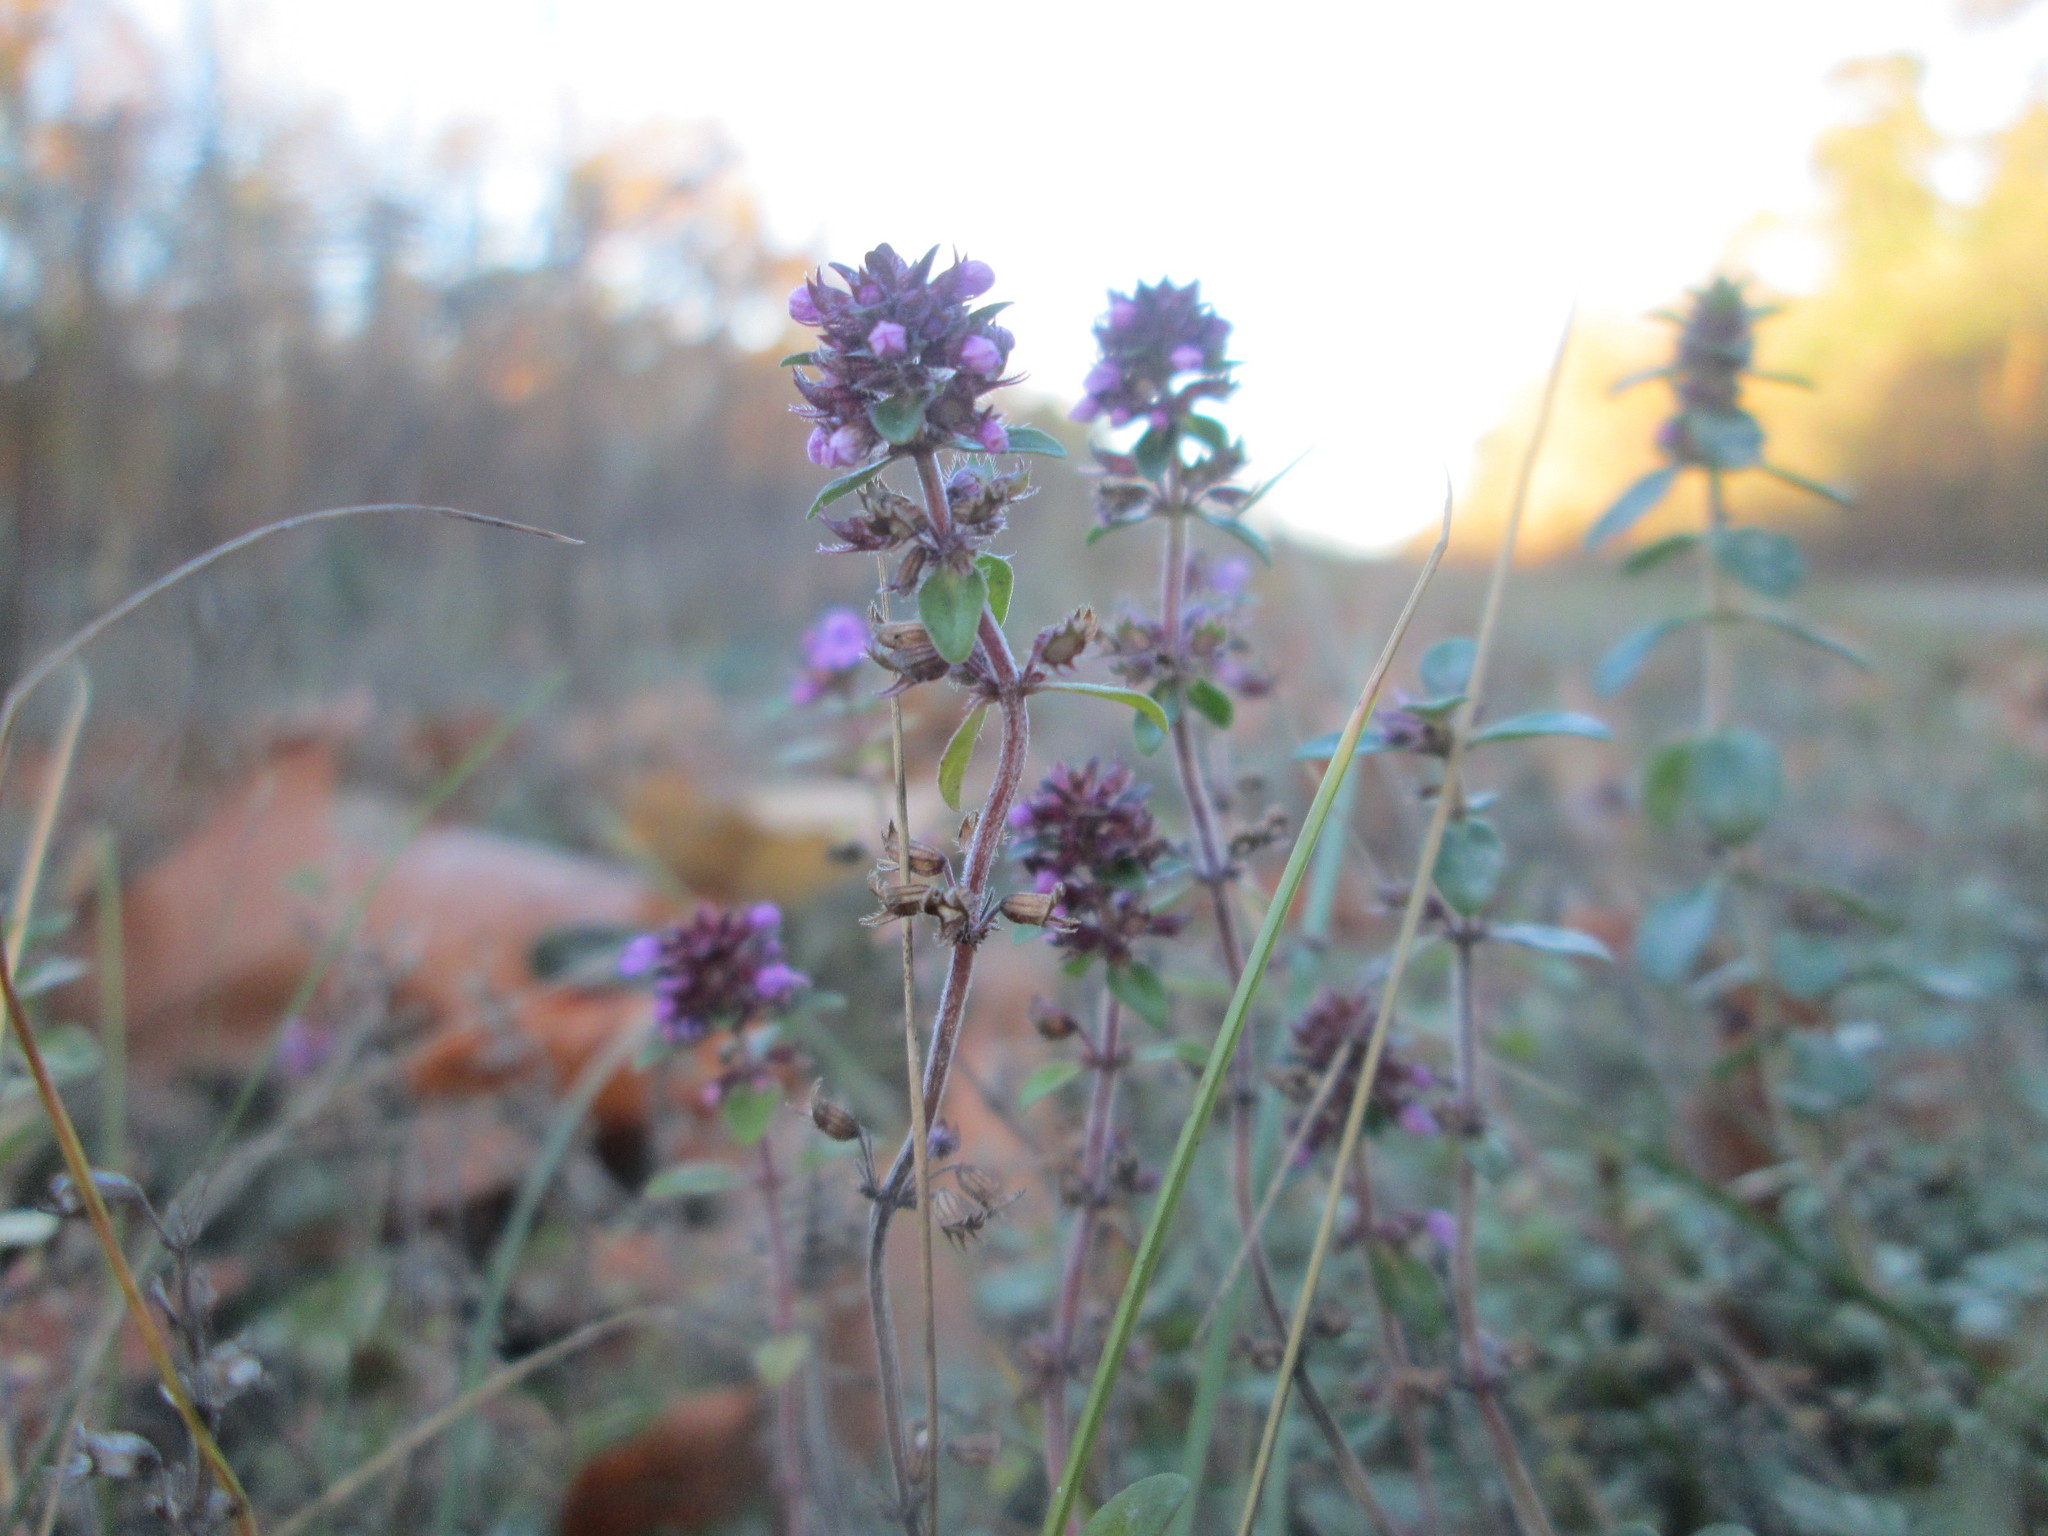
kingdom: Plantae
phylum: Tracheophyta
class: Magnoliopsida
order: Lamiales
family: Lamiaceae
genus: Thymus
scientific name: Thymus pulegioides
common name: Large thyme
